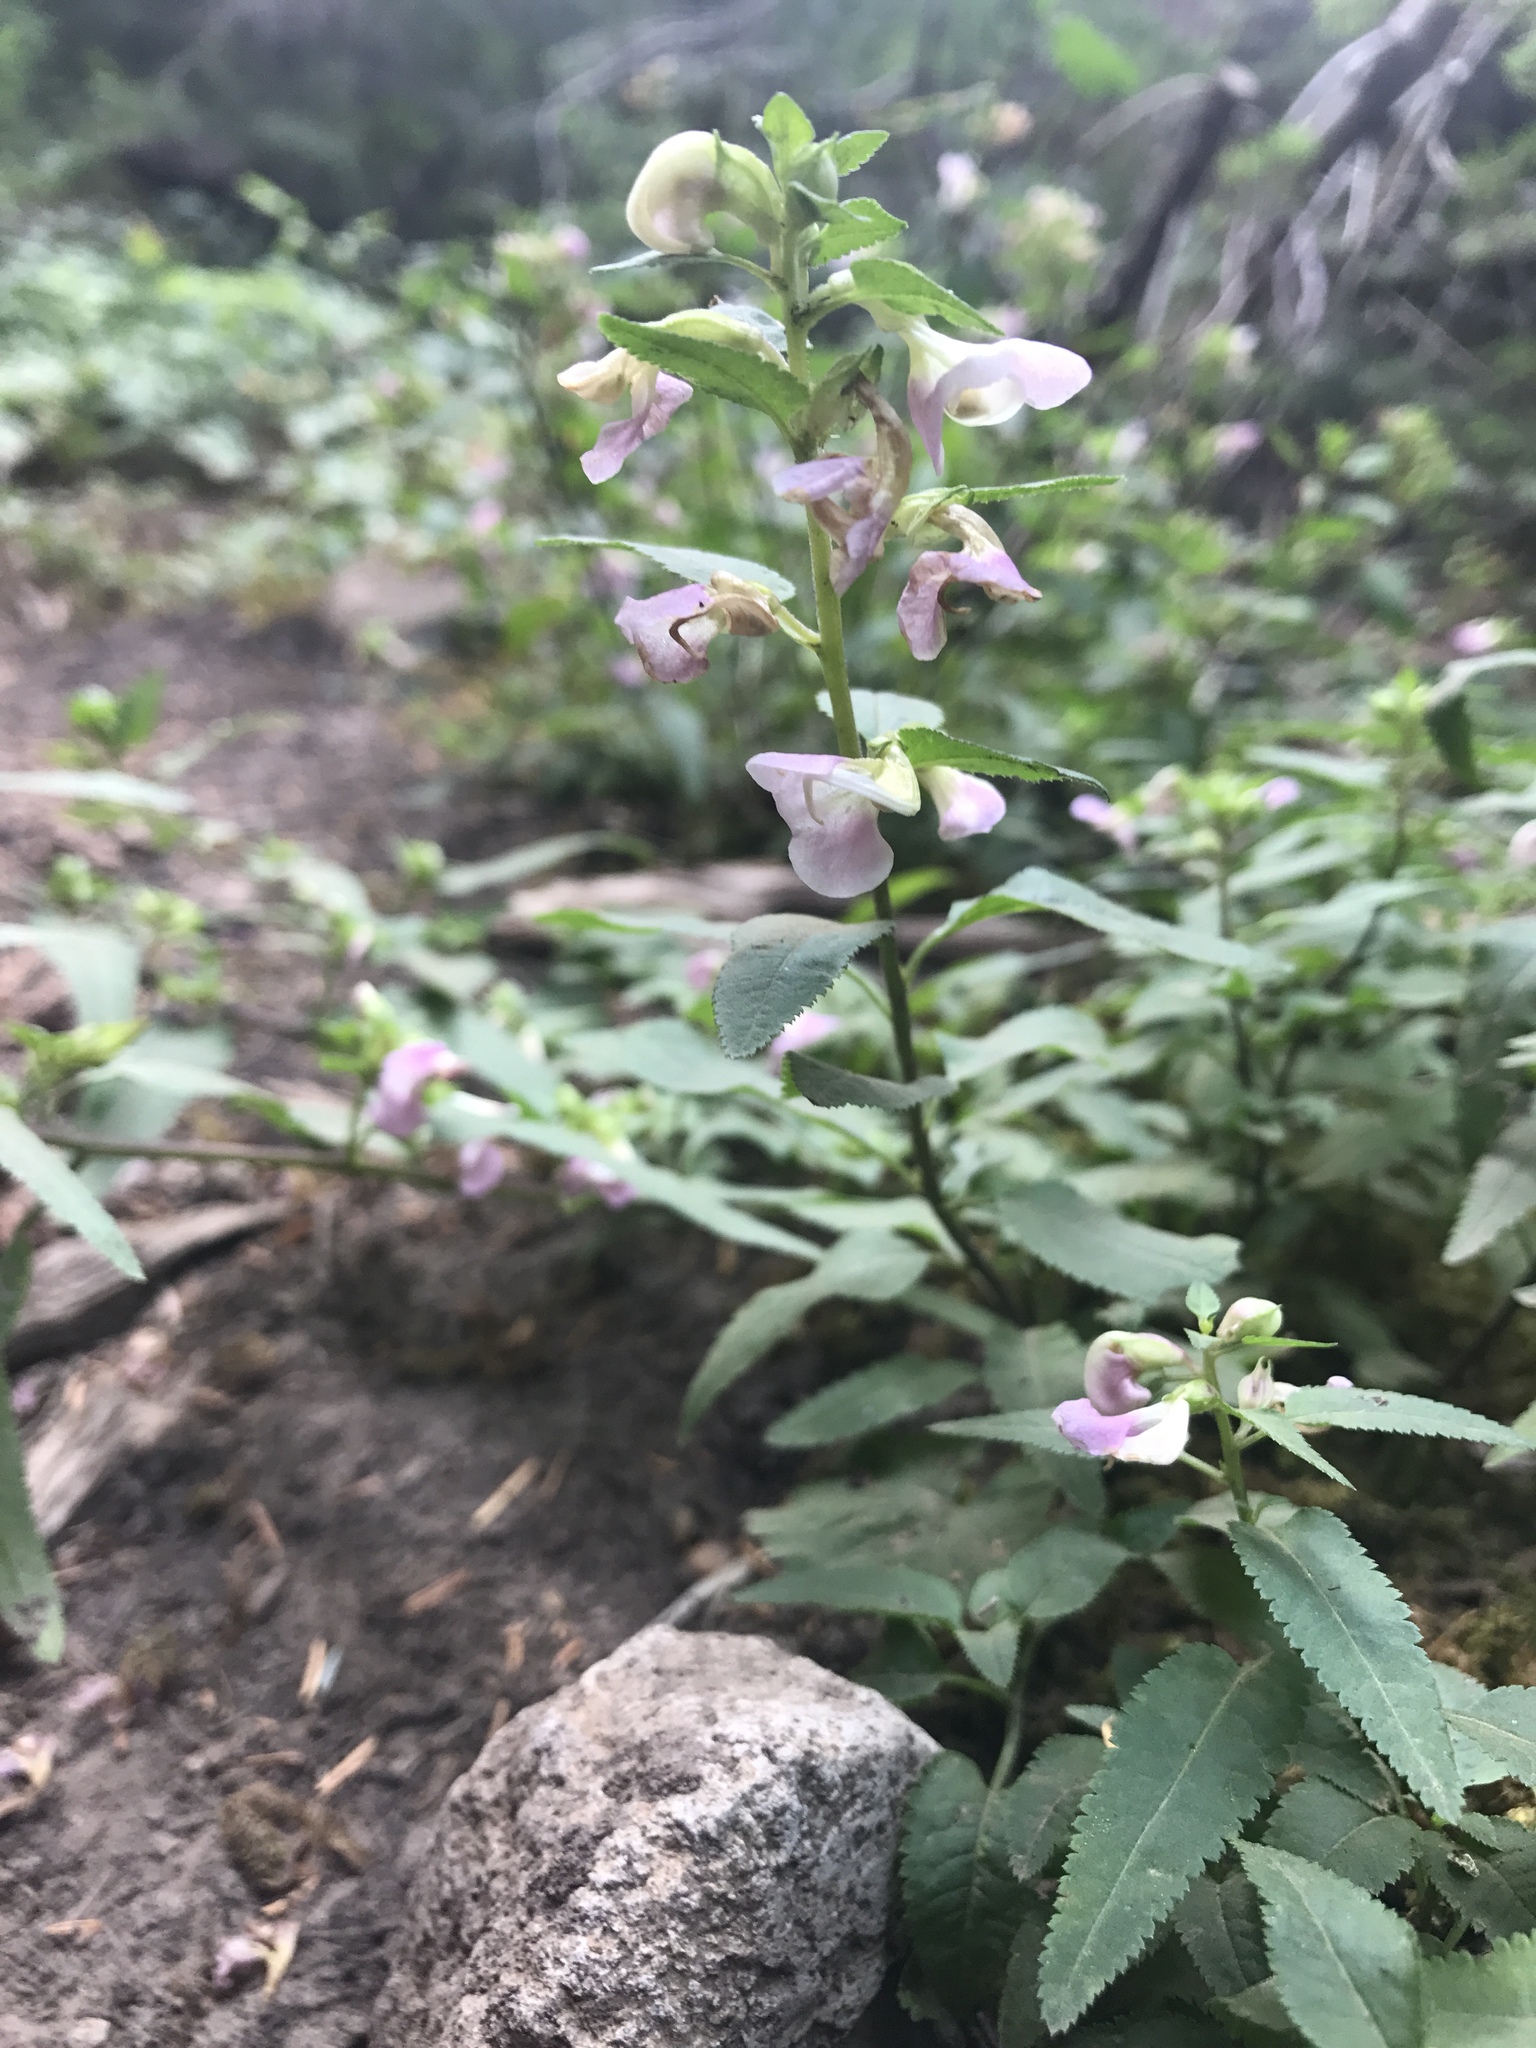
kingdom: Plantae
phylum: Tracheophyta
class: Magnoliopsida
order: Lamiales
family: Orobanchaceae
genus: Pedicularis
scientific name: Pedicularis racemosa
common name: Leafy lousewort
